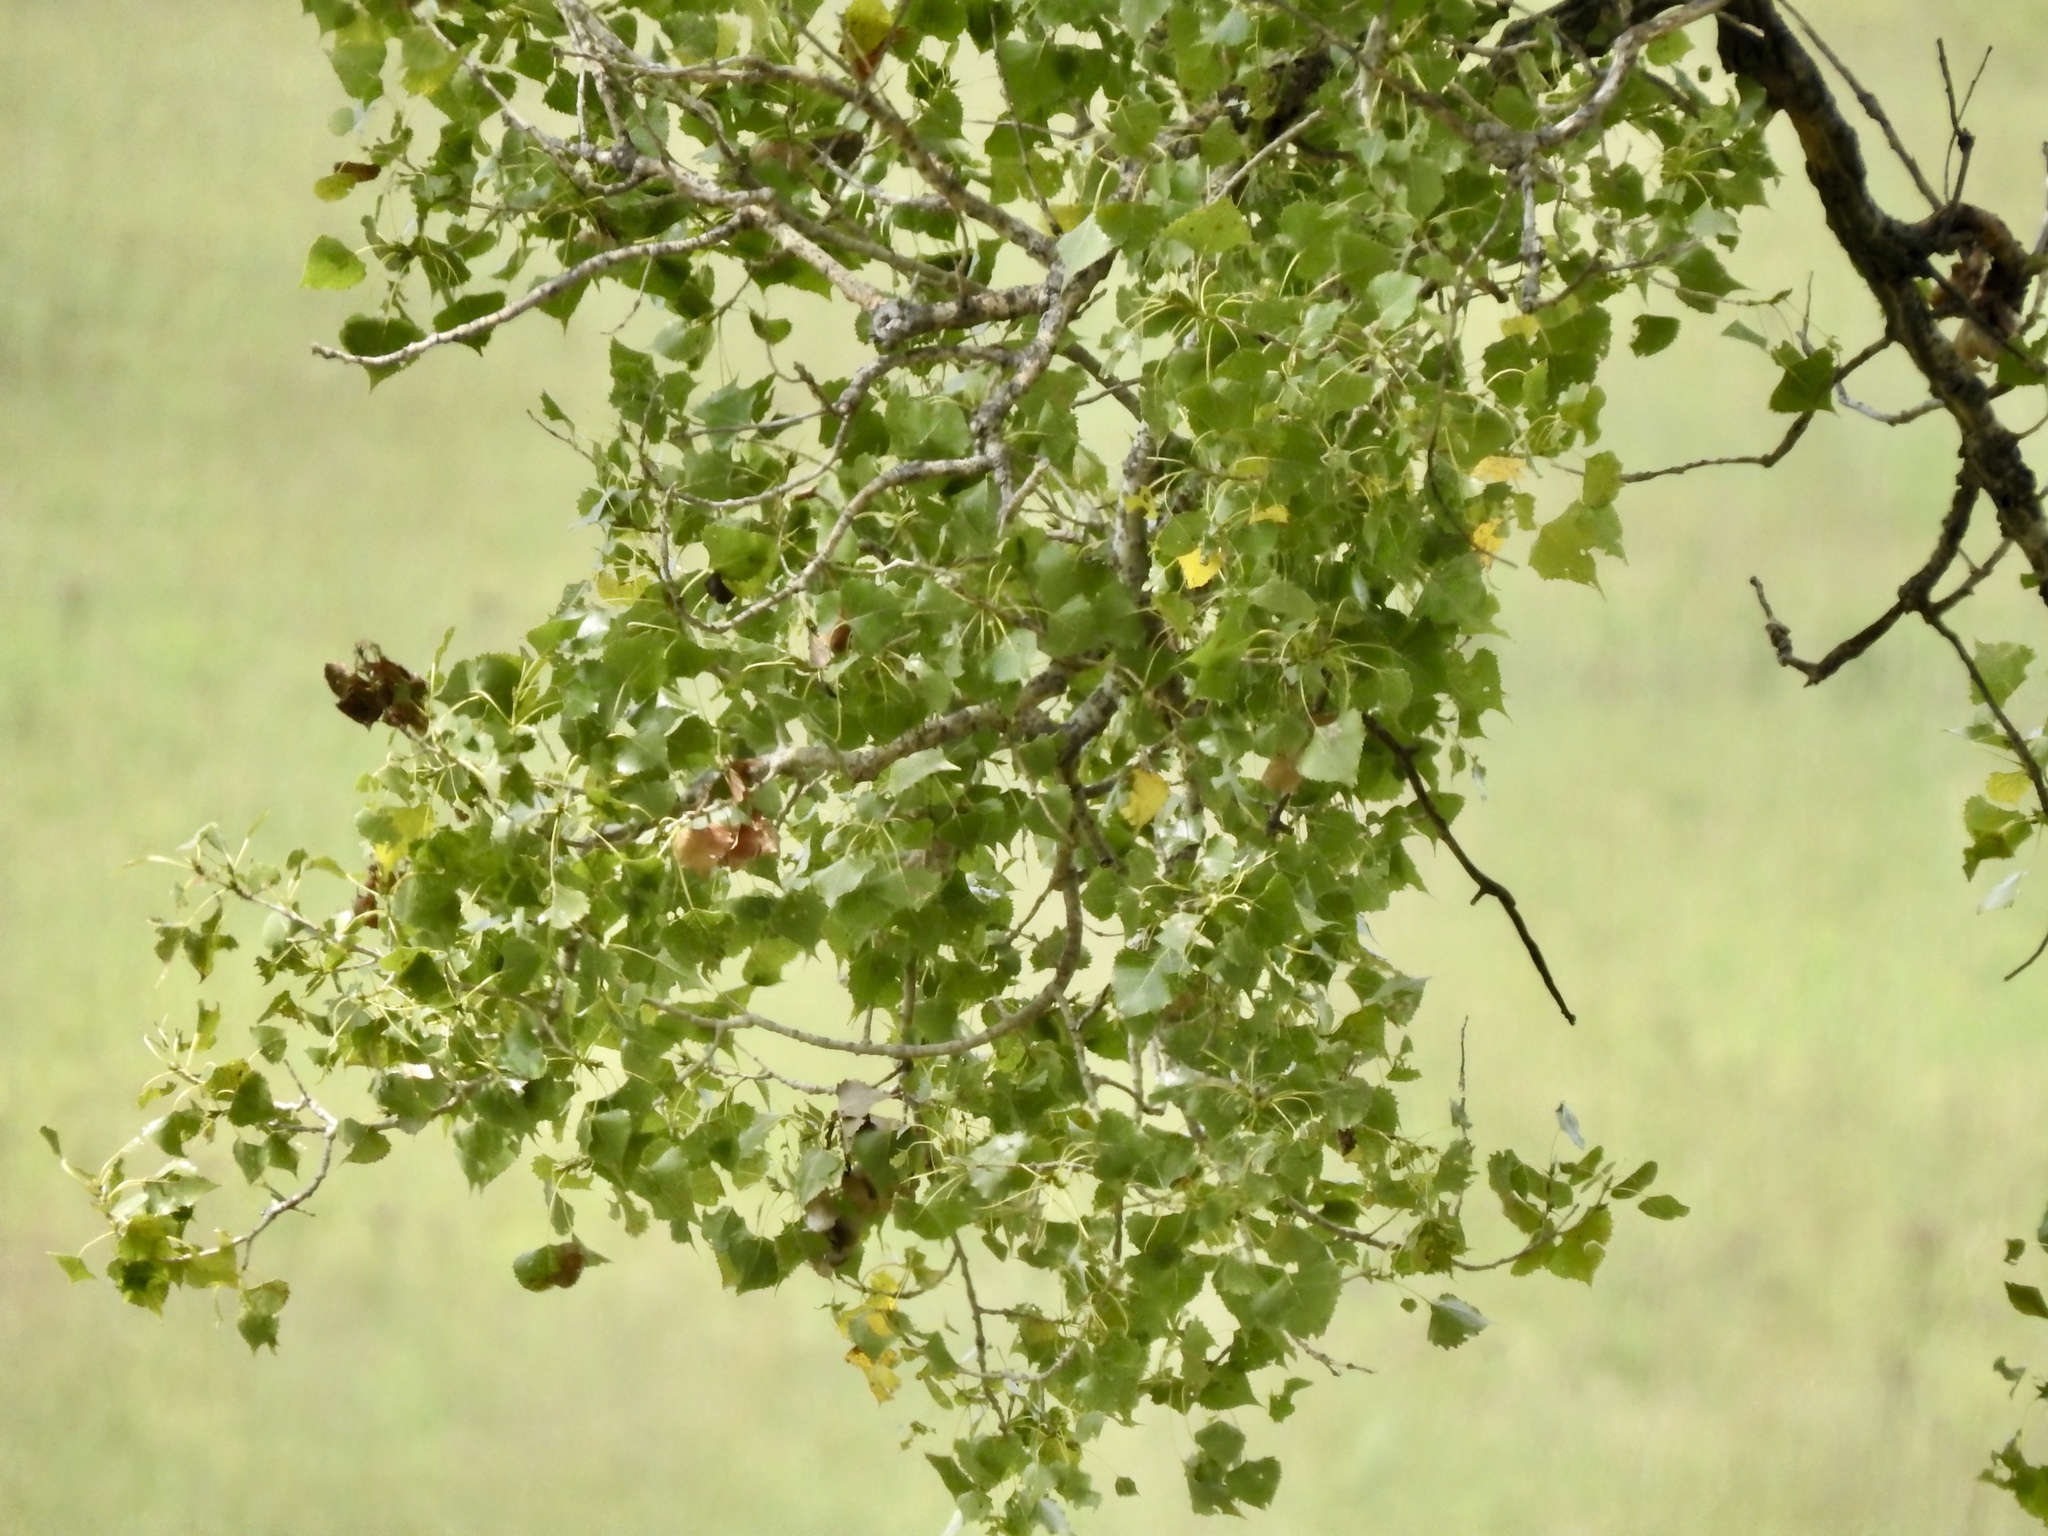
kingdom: Plantae
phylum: Tracheophyta
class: Magnoliopsida
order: Malpighiales
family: Salicaceae
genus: Populus
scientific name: Populus deltoides
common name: Eastern cottonwood
